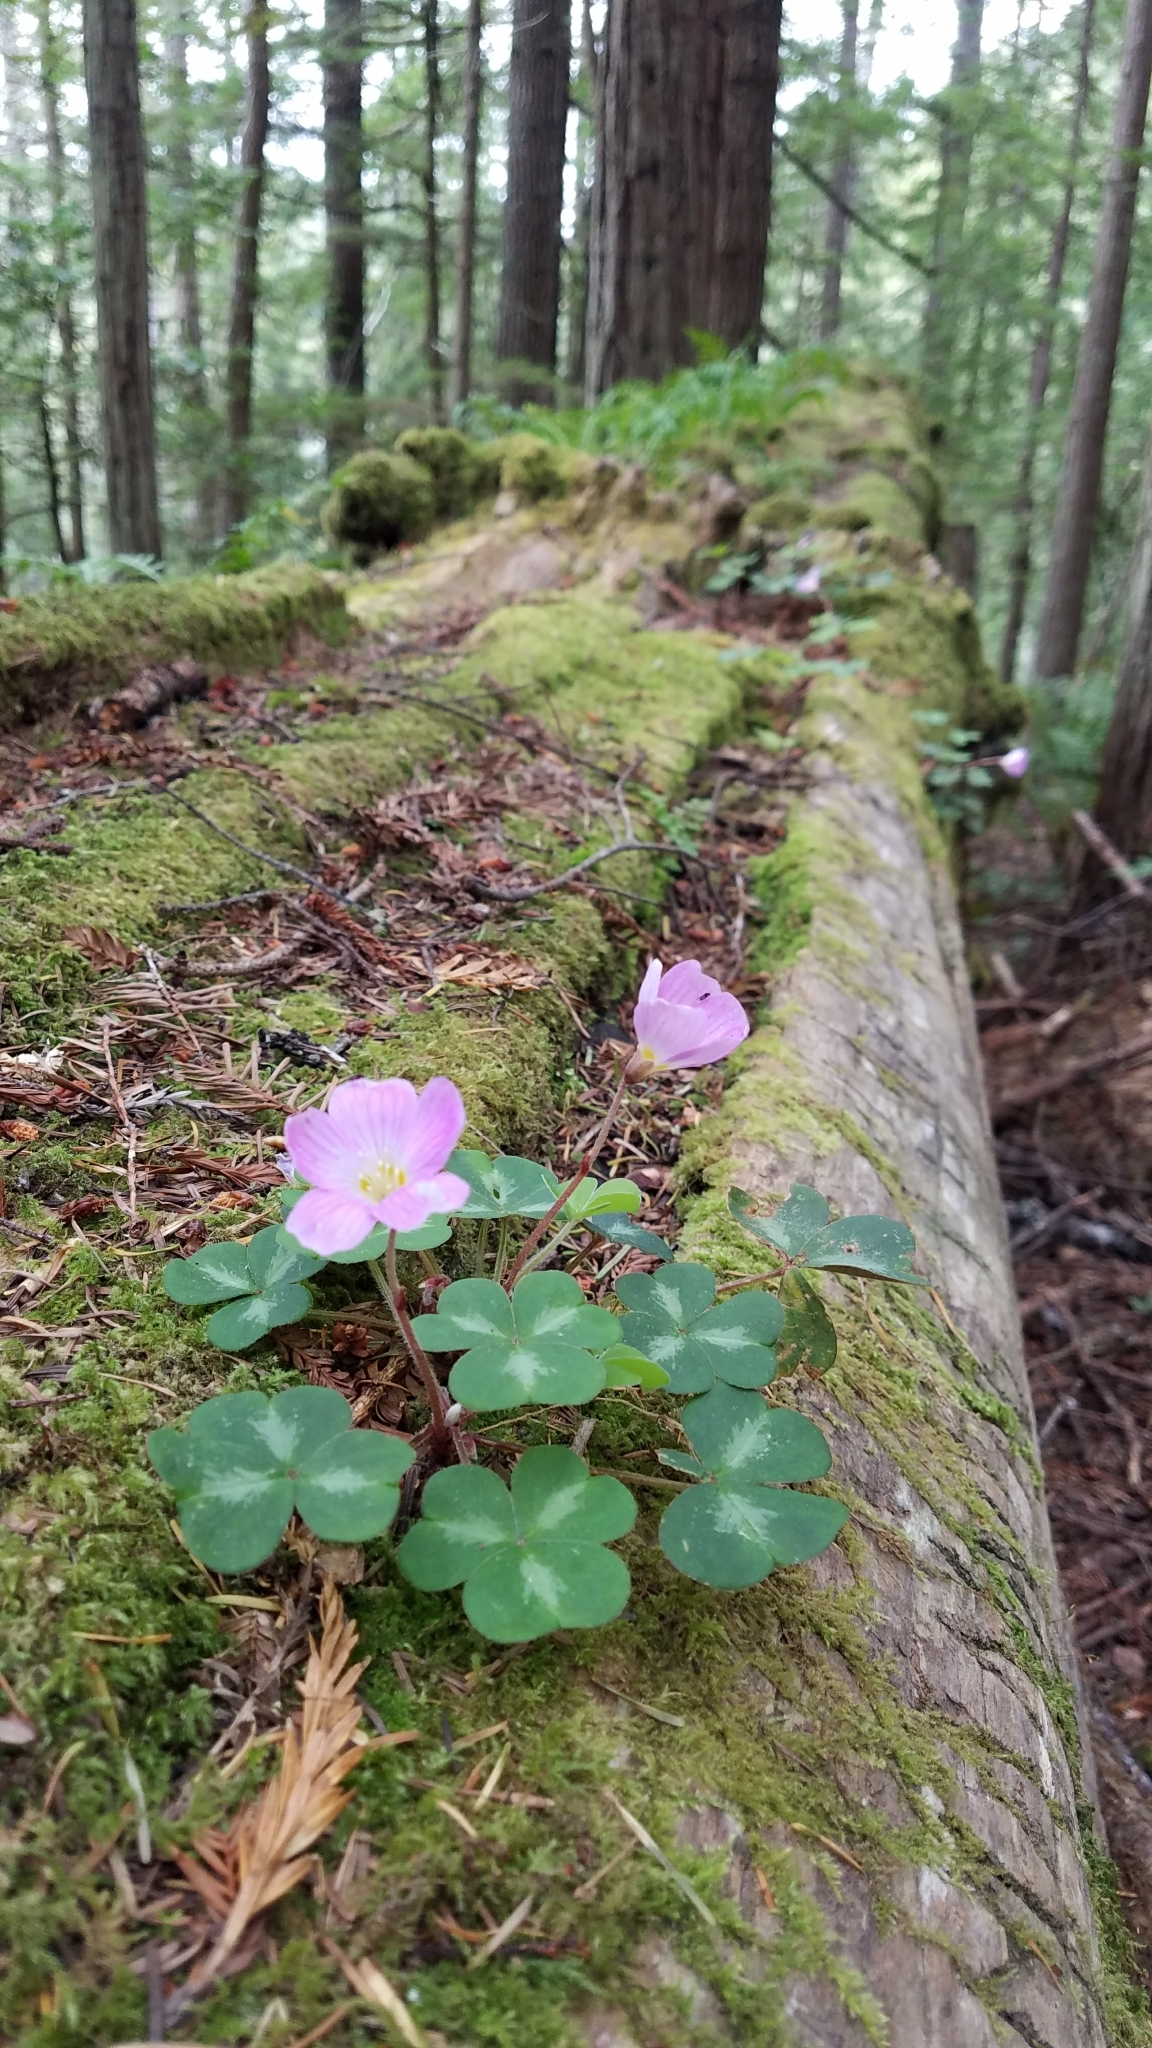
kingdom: Plantae
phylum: Tracheophyta
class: Magnoliopsida
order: Oxalidales
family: Oxalidaceae
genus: Oxalis
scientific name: Oxalis oregana
